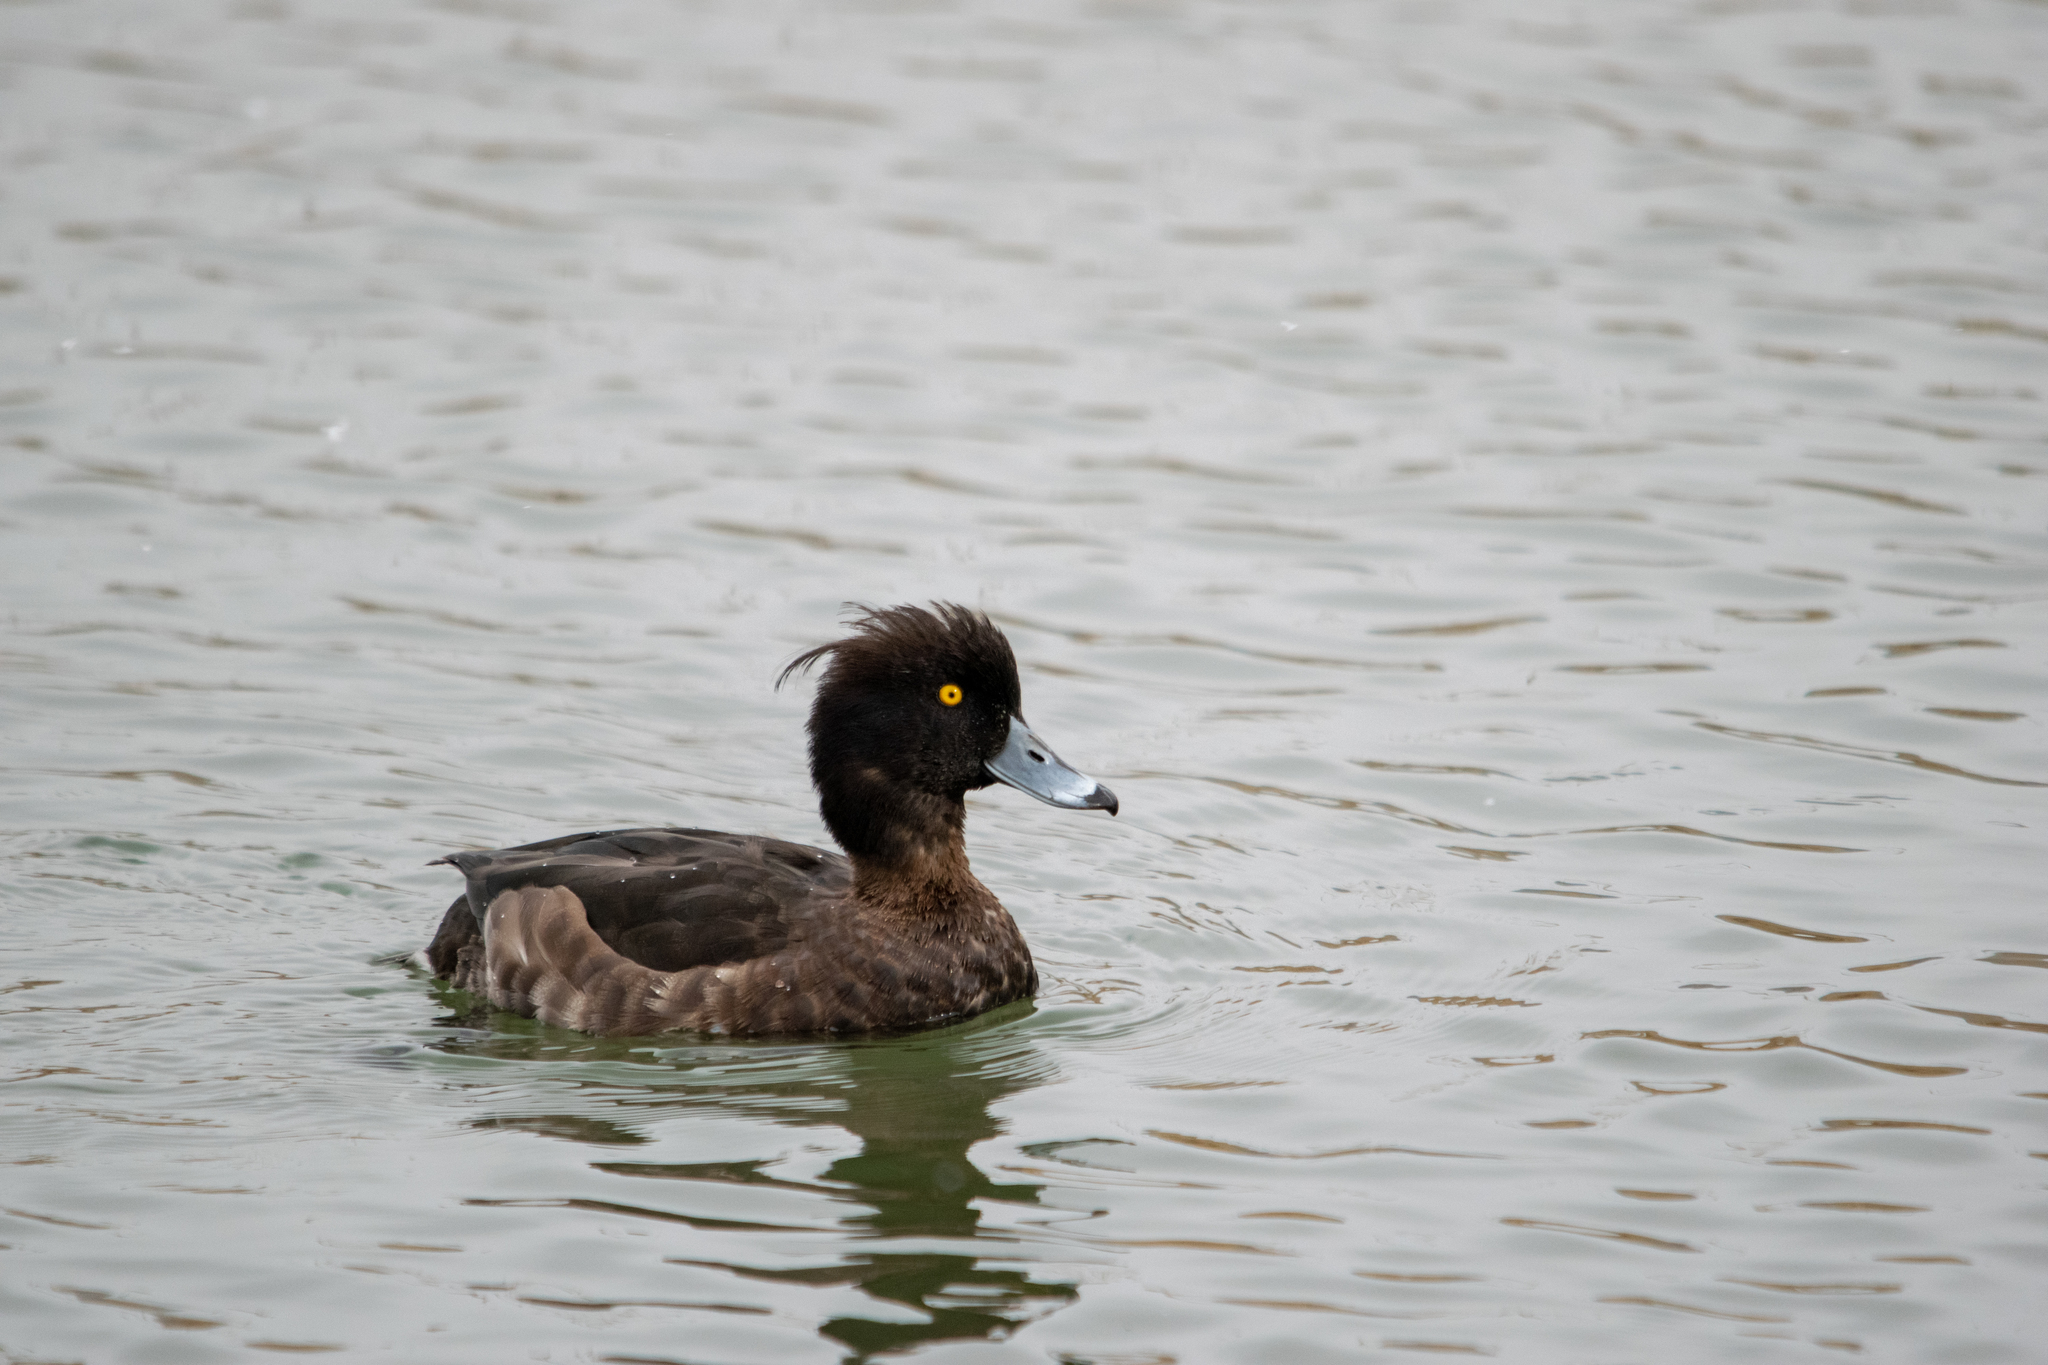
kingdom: Animalia
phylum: Chordata
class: Aves
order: Anseriformes
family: Anatidae
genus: Aythya
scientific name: Aythya fuligula
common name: Tufted duck
